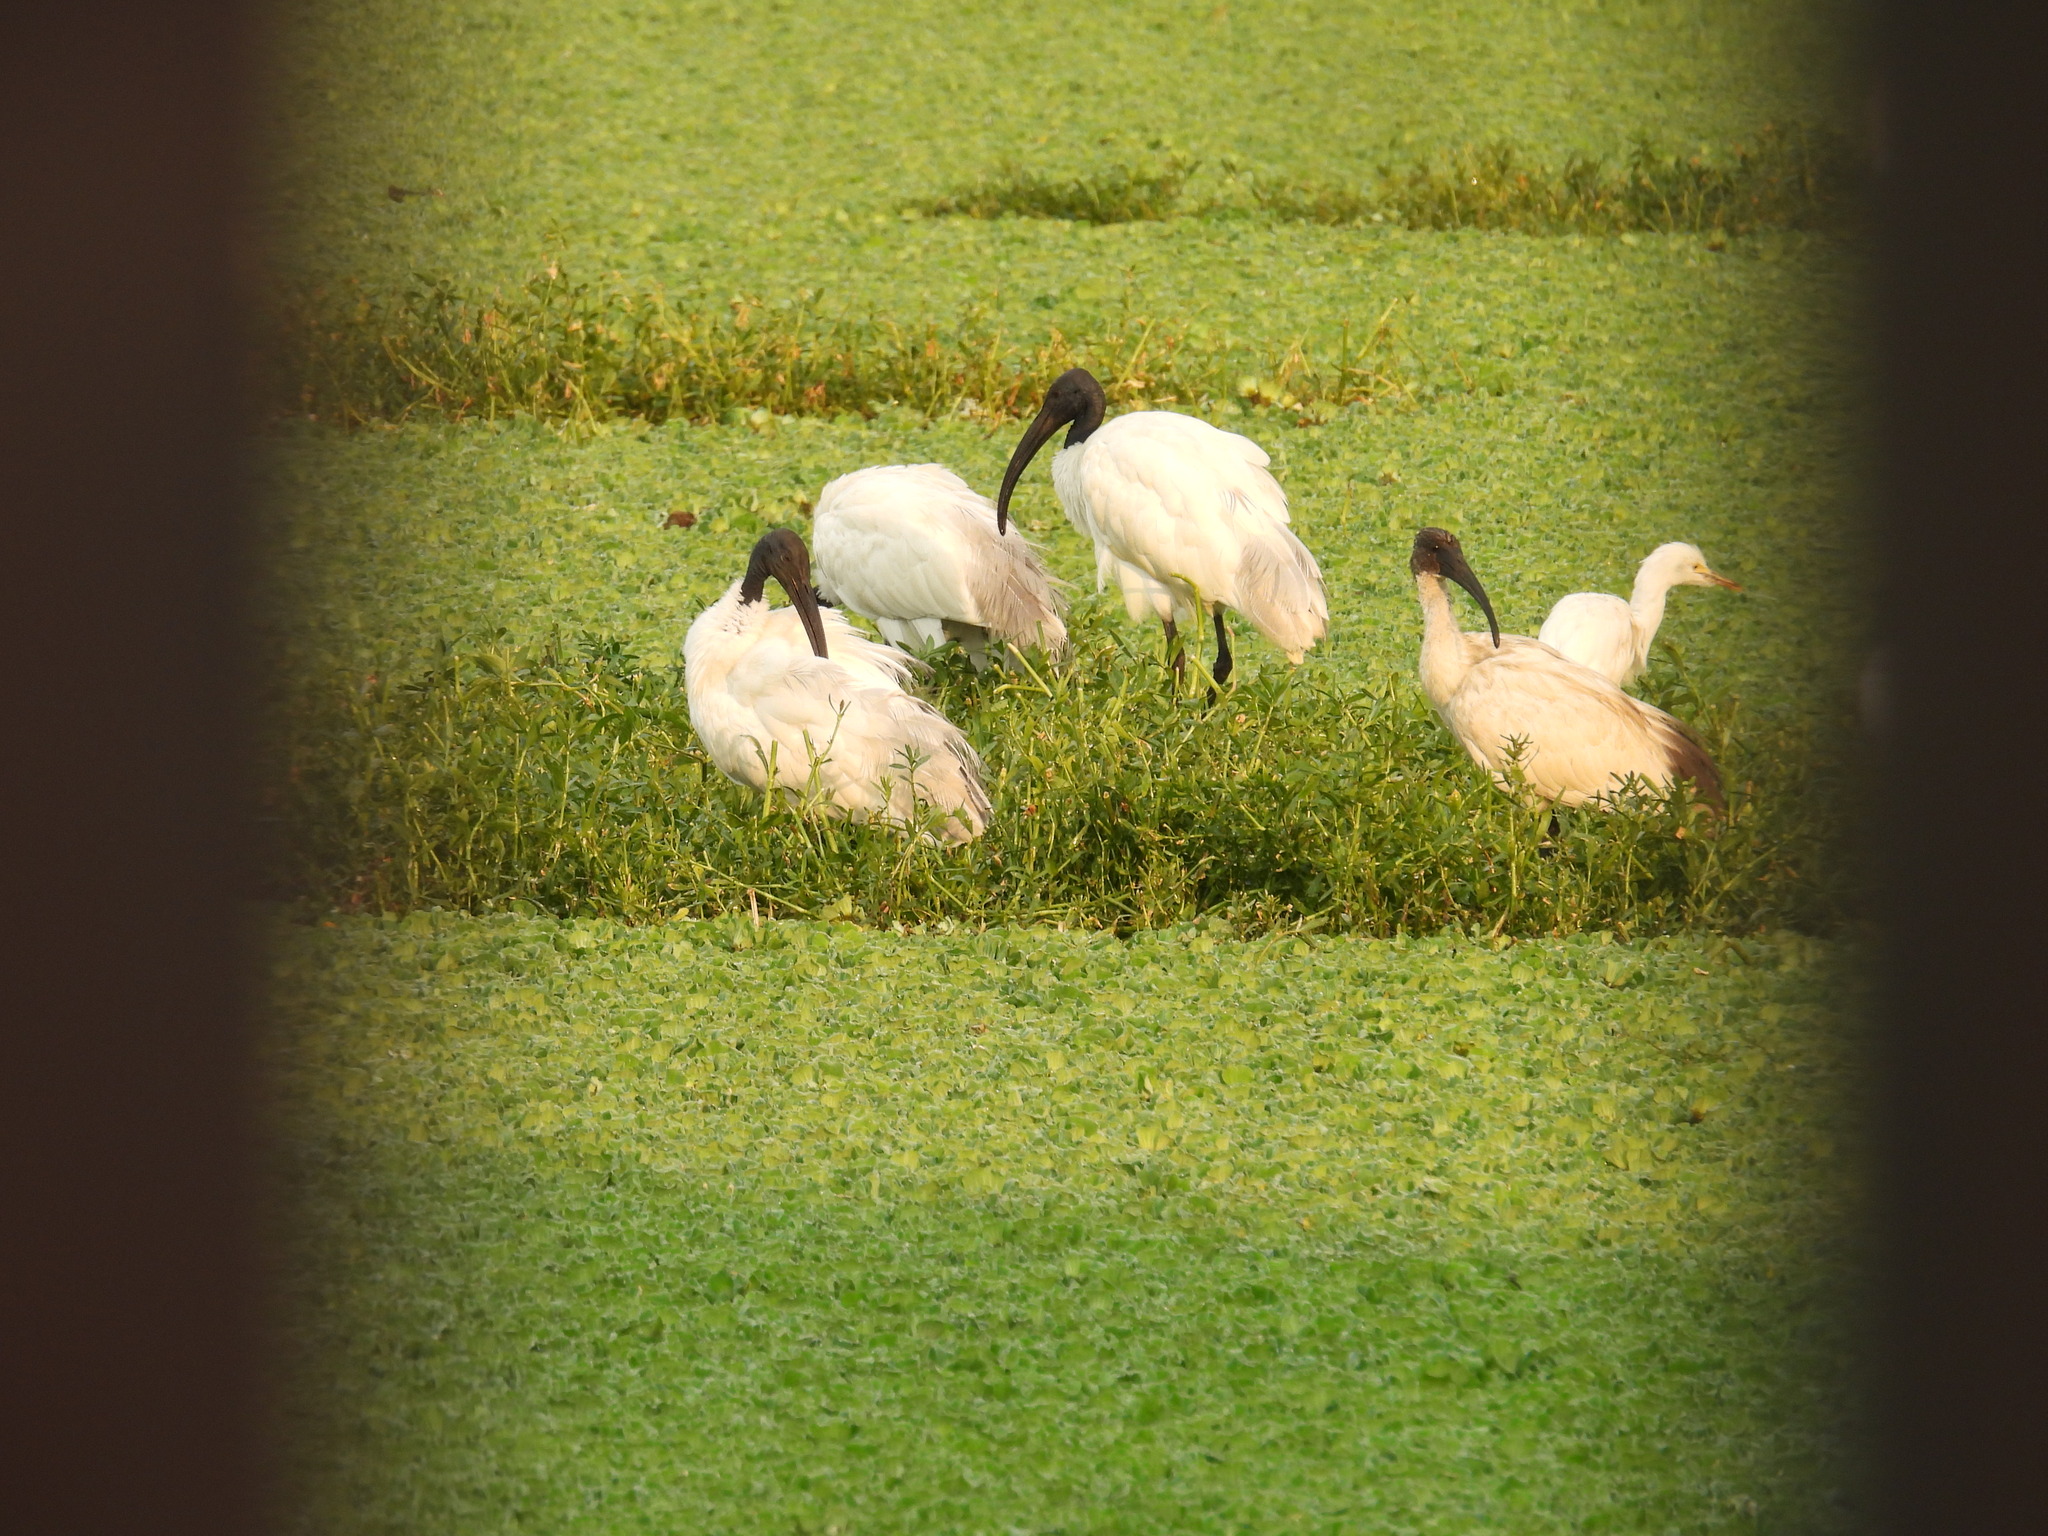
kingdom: Animalia
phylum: Chordata
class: Aves
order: Pelecaniformes
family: Threskiornithidae
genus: Threskiornis
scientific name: Threskiornis melanocephalus
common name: Black-headed ibis
